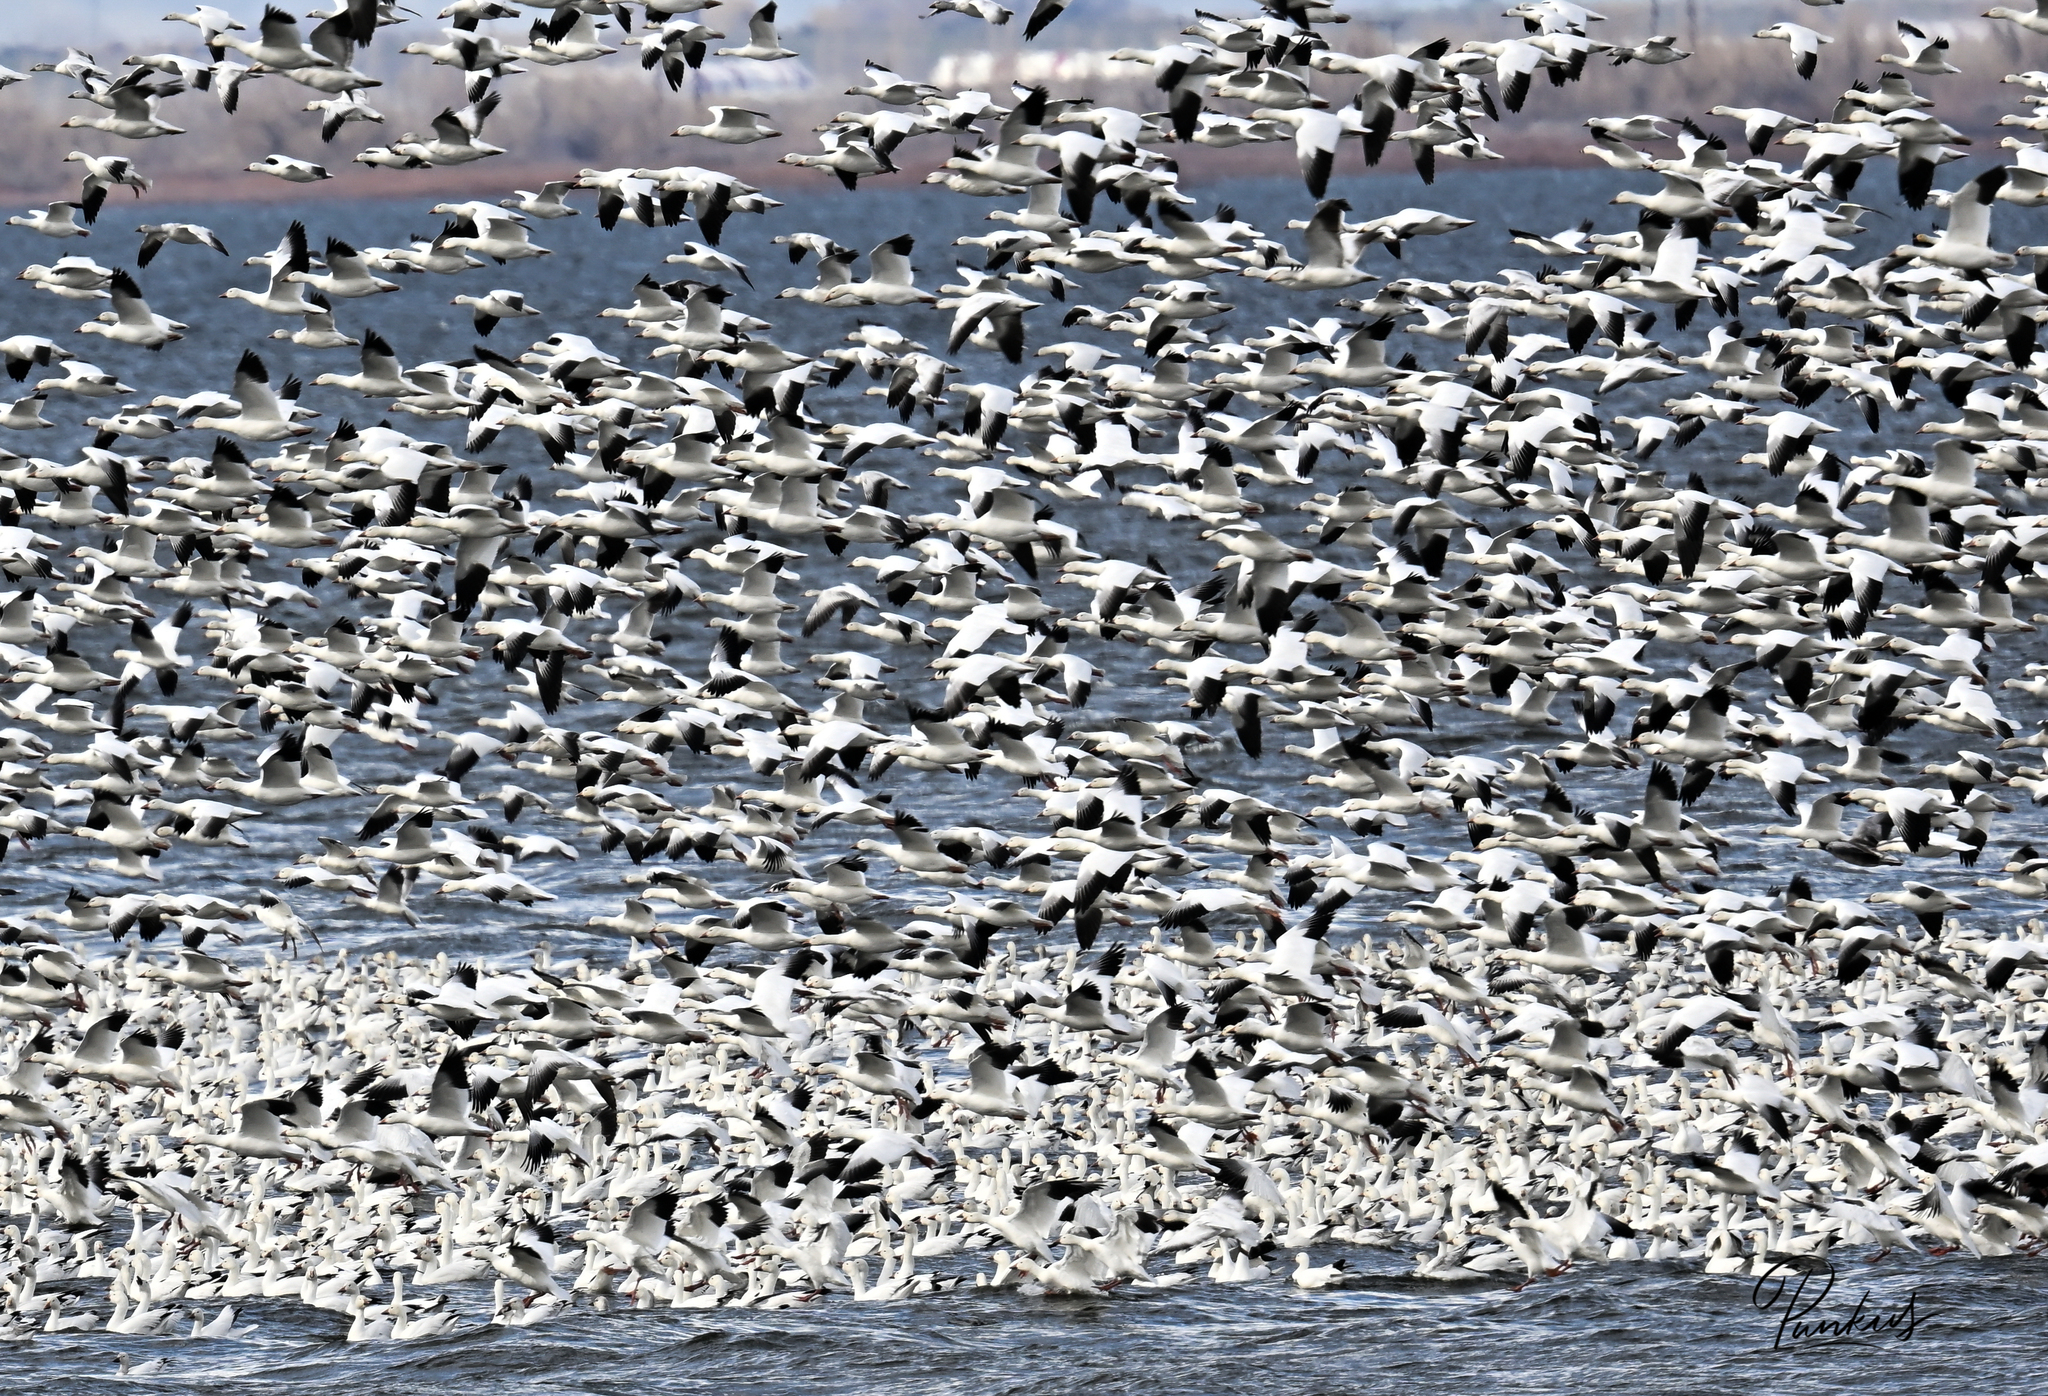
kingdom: Animalia
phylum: Chordata
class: Aves
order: Anseriformes
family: Anatidae
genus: Anser
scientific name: Anser caerulescens
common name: Snow goose
